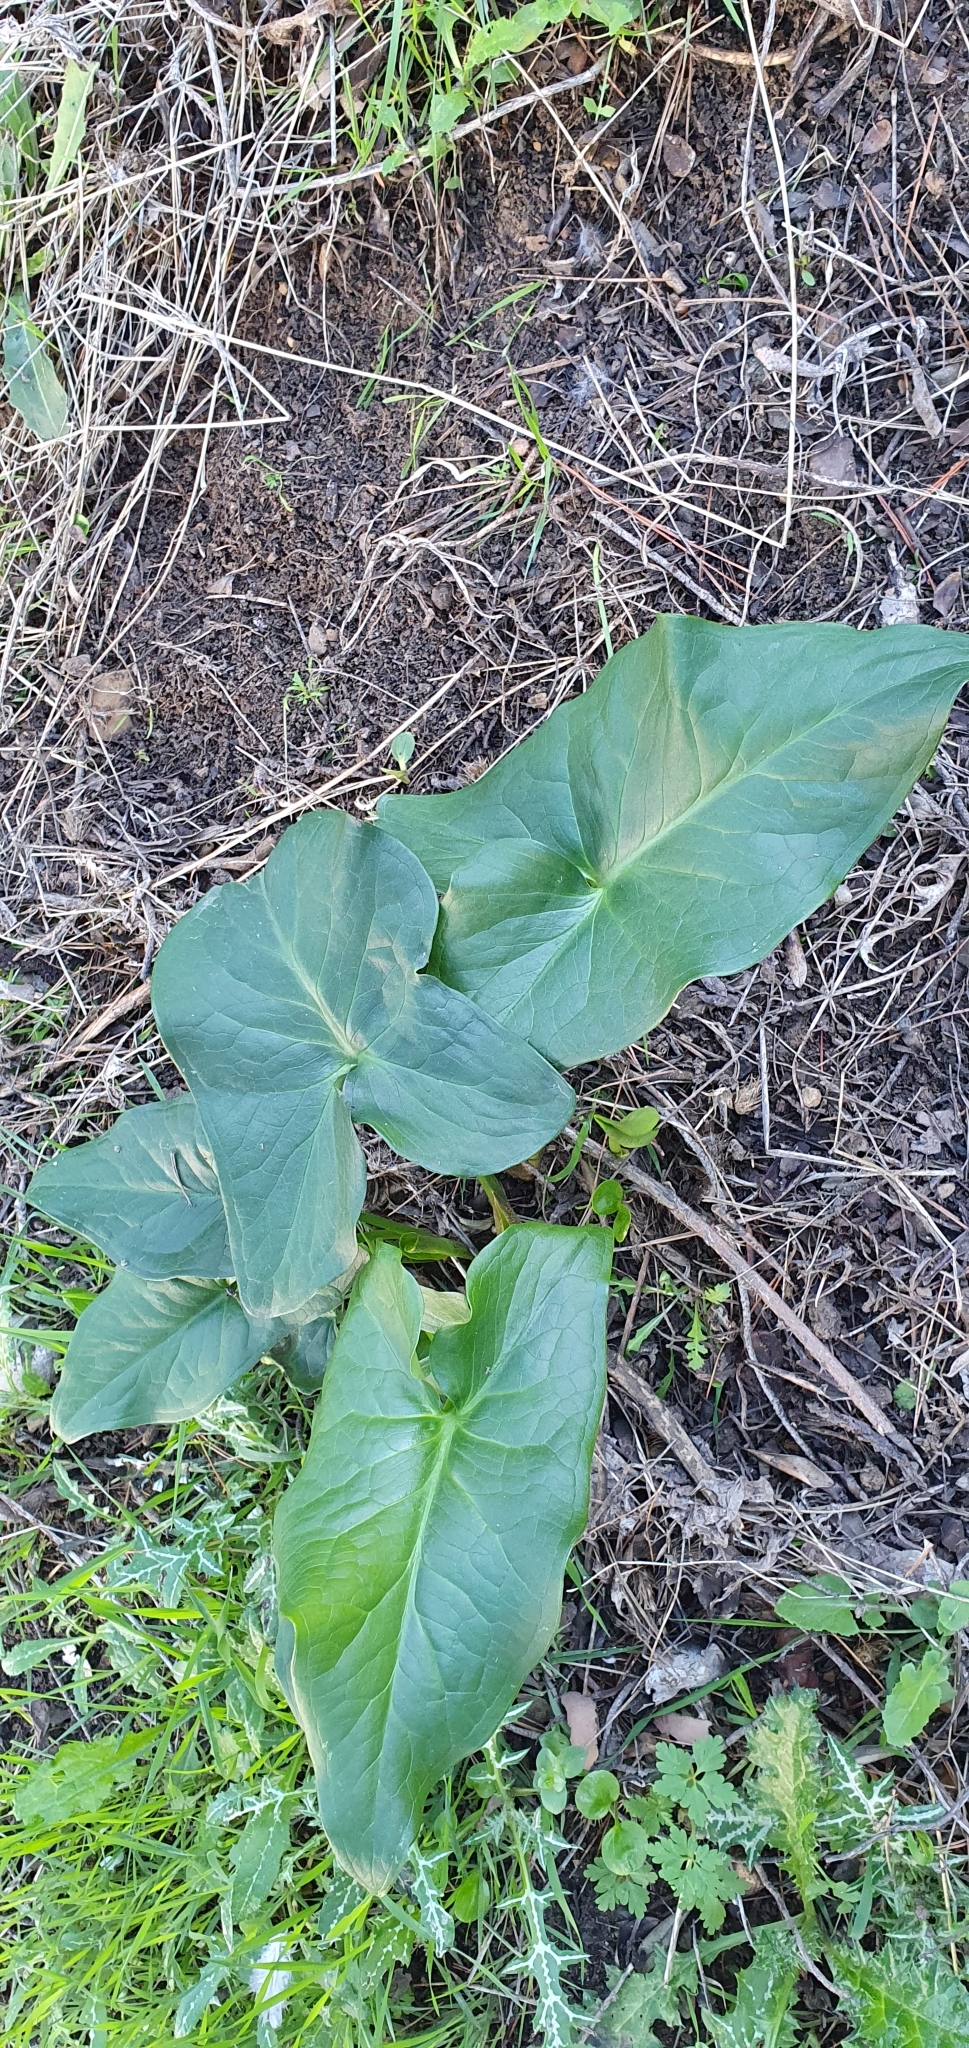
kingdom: Plantae
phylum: Tracheophyta
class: Liliopsida
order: Alismatales
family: Araceae
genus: Arum
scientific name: Arum italicum
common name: Italian lords-and-ladies
